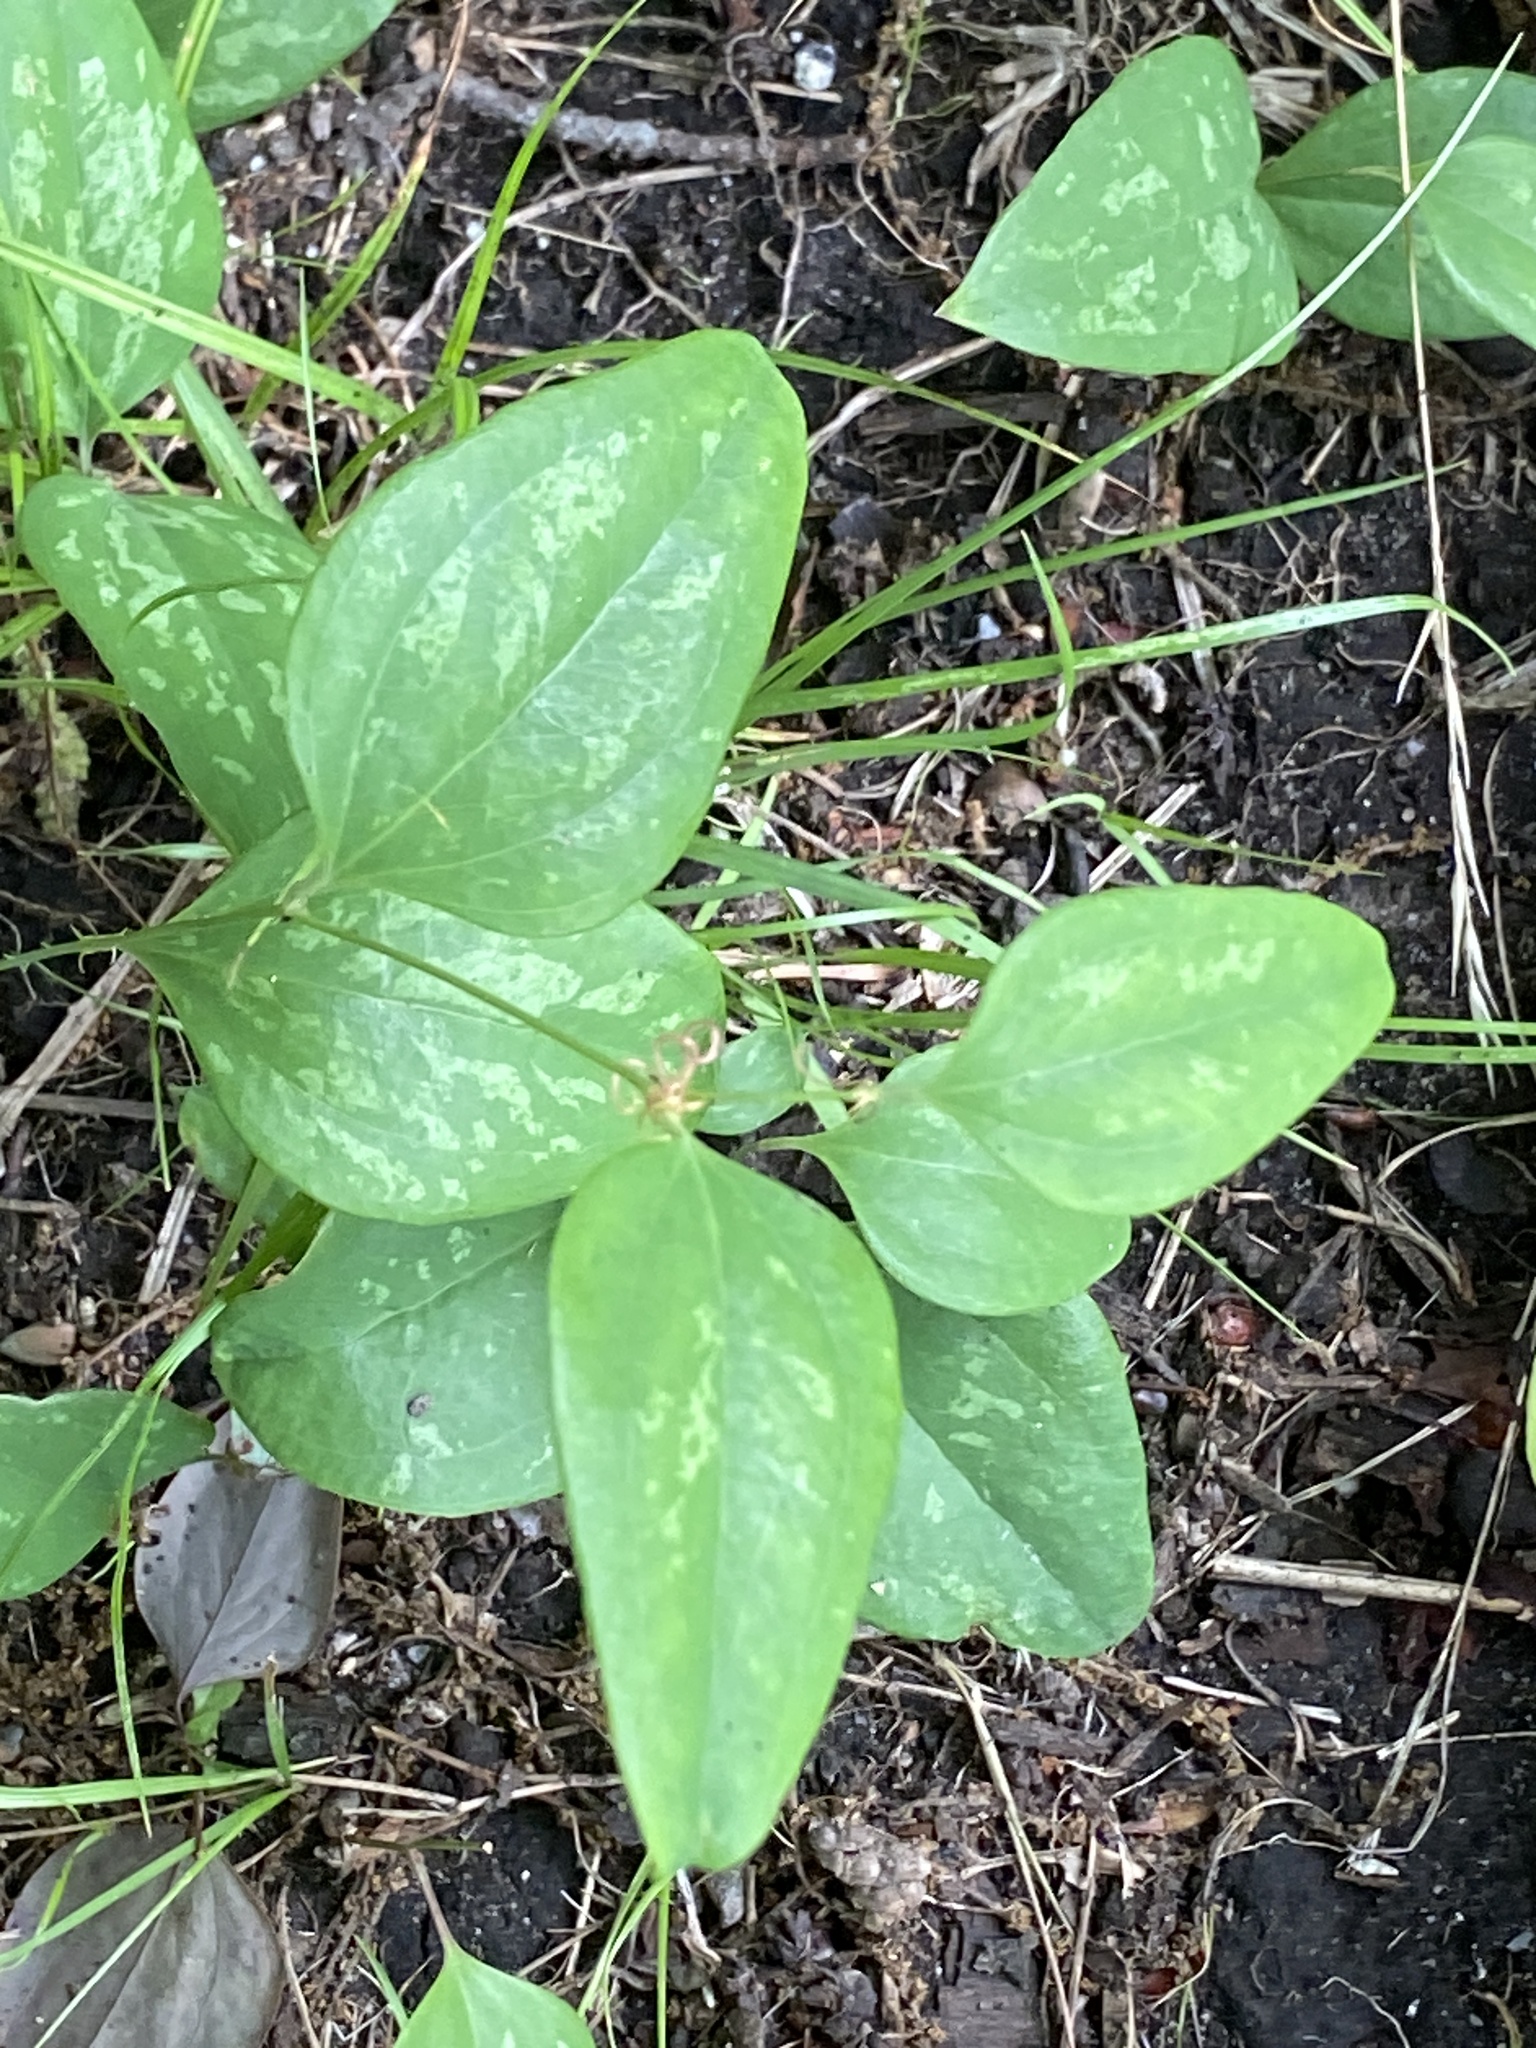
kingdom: Plantae
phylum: Tracheophyta
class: Liliopsida
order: Liliales
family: Smilacaceae
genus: Smilax
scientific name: Smilax glauca
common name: Cat greenbrier
